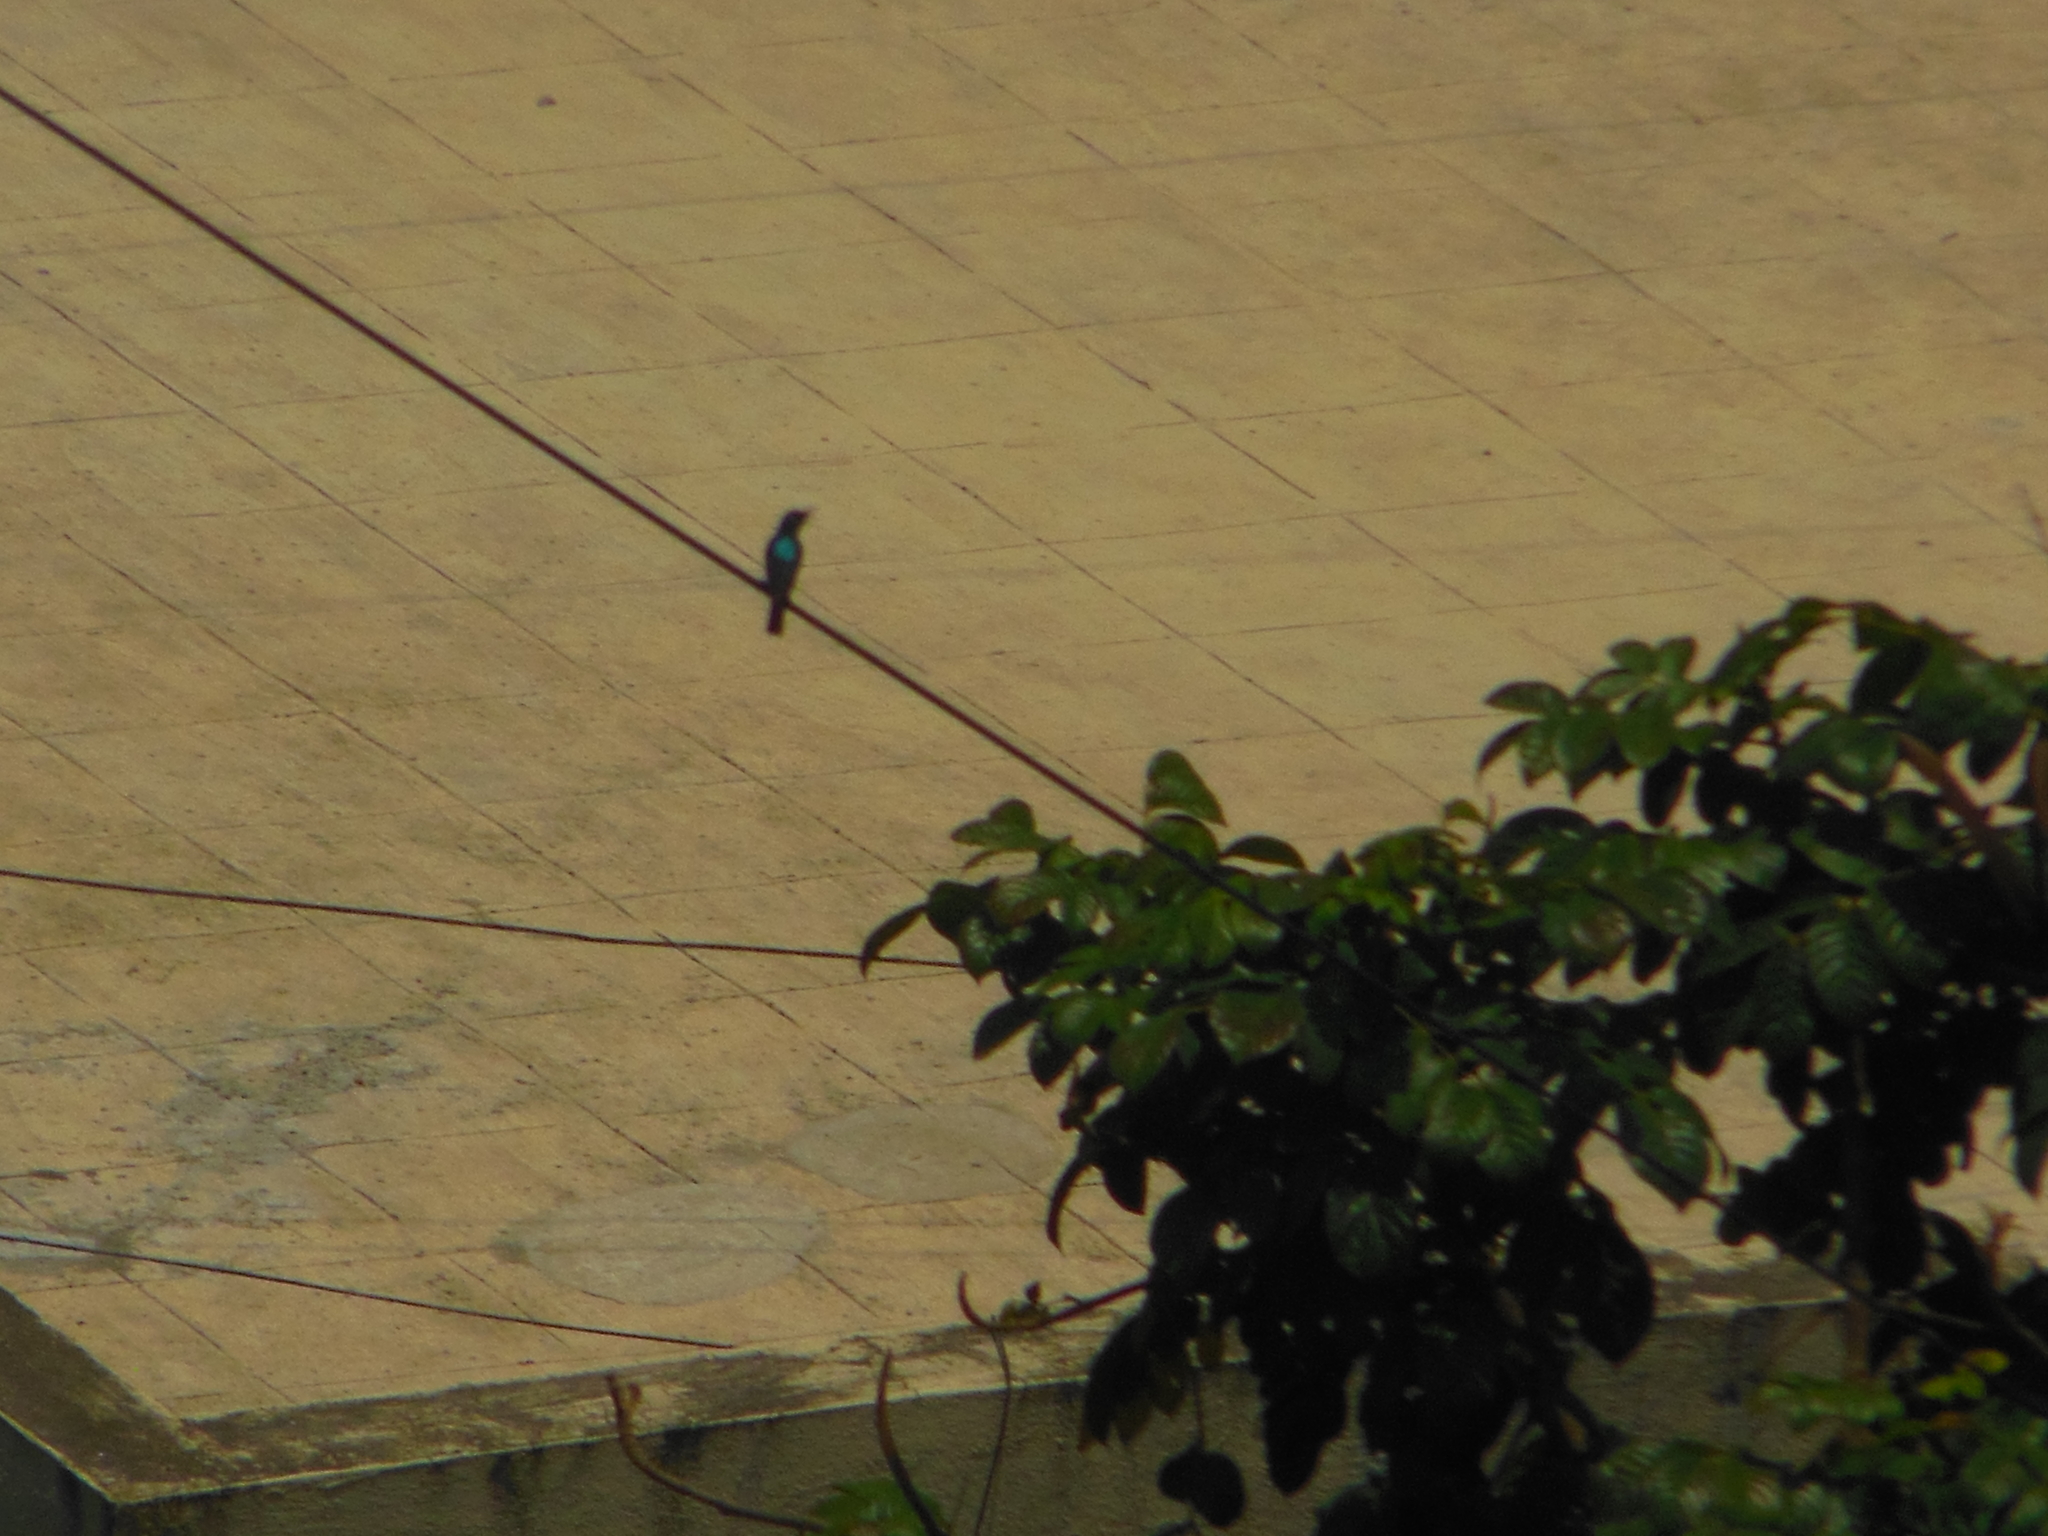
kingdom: Animalia
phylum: Chordata
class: Aves
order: Passeriformes
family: Nectariniidae
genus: Cinnyris
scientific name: Cinnyris asiaticus
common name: Purple sunbird
